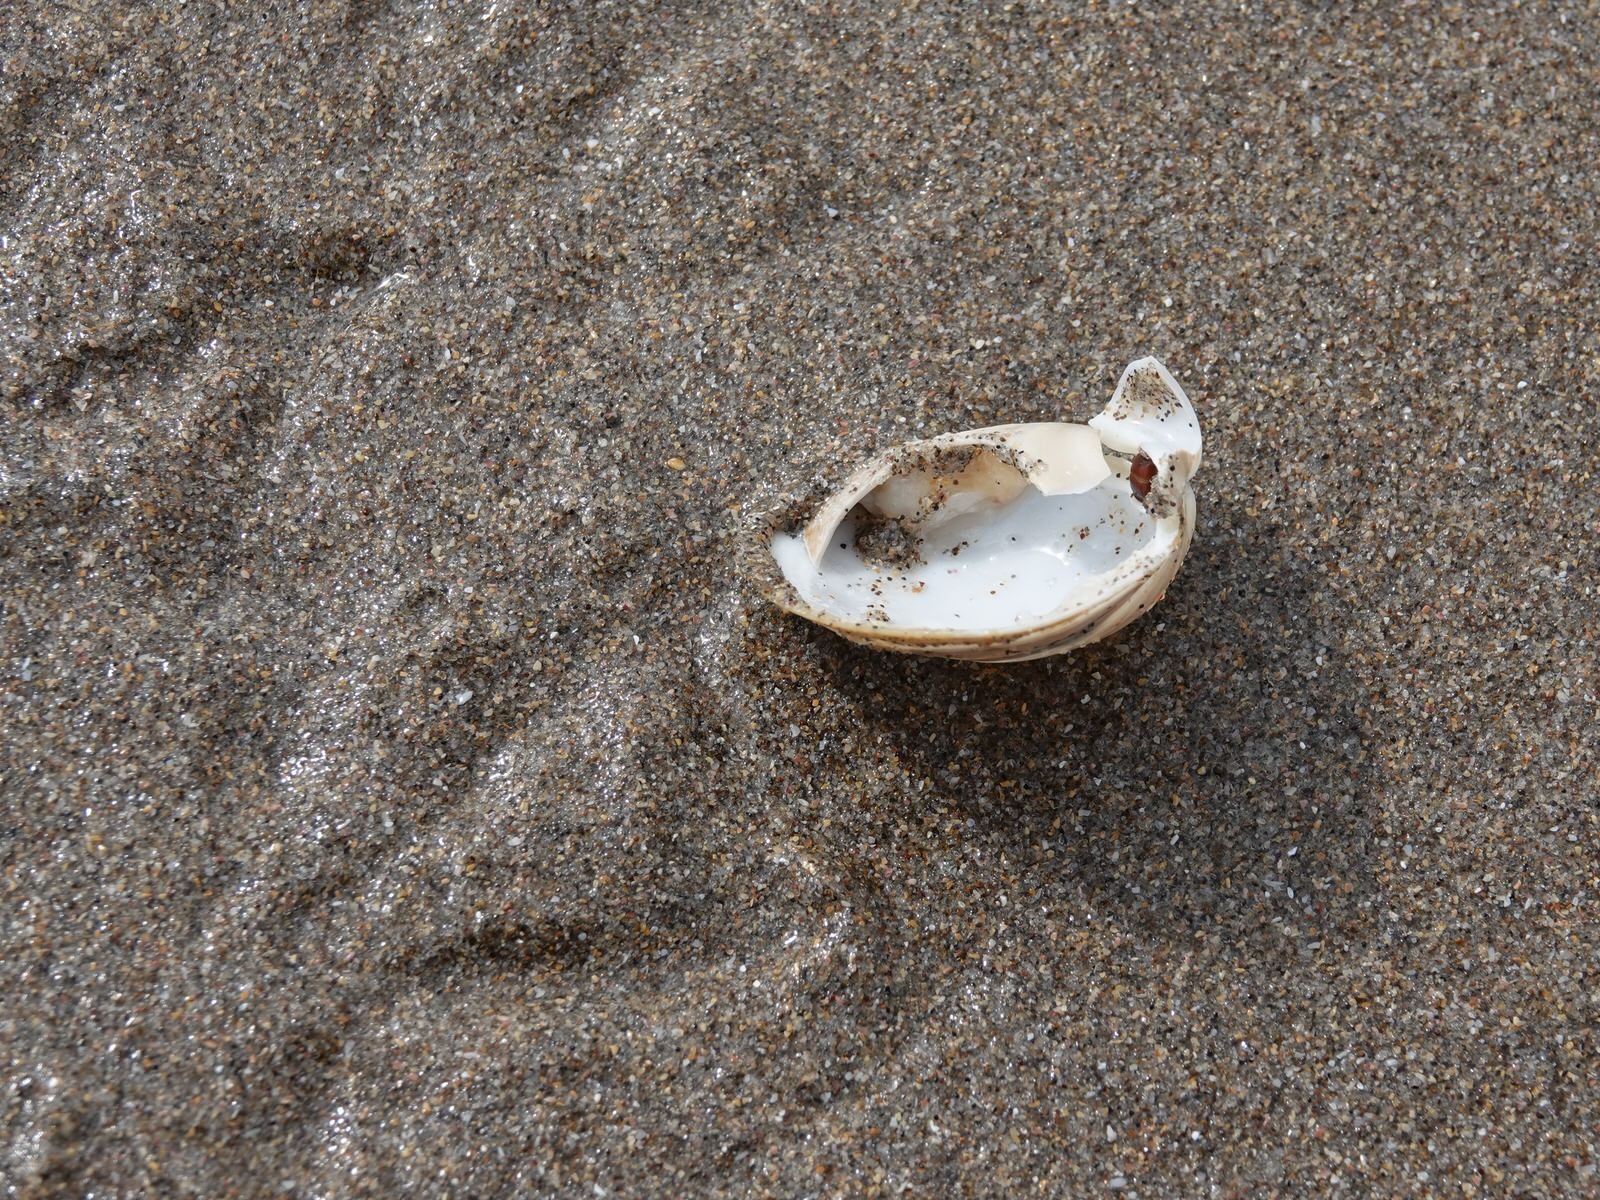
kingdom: Animalia
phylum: Chordata
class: Aves
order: Charadriiformes
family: Laridae
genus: Larus
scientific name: Larus dominicanus
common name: Kelp gull
